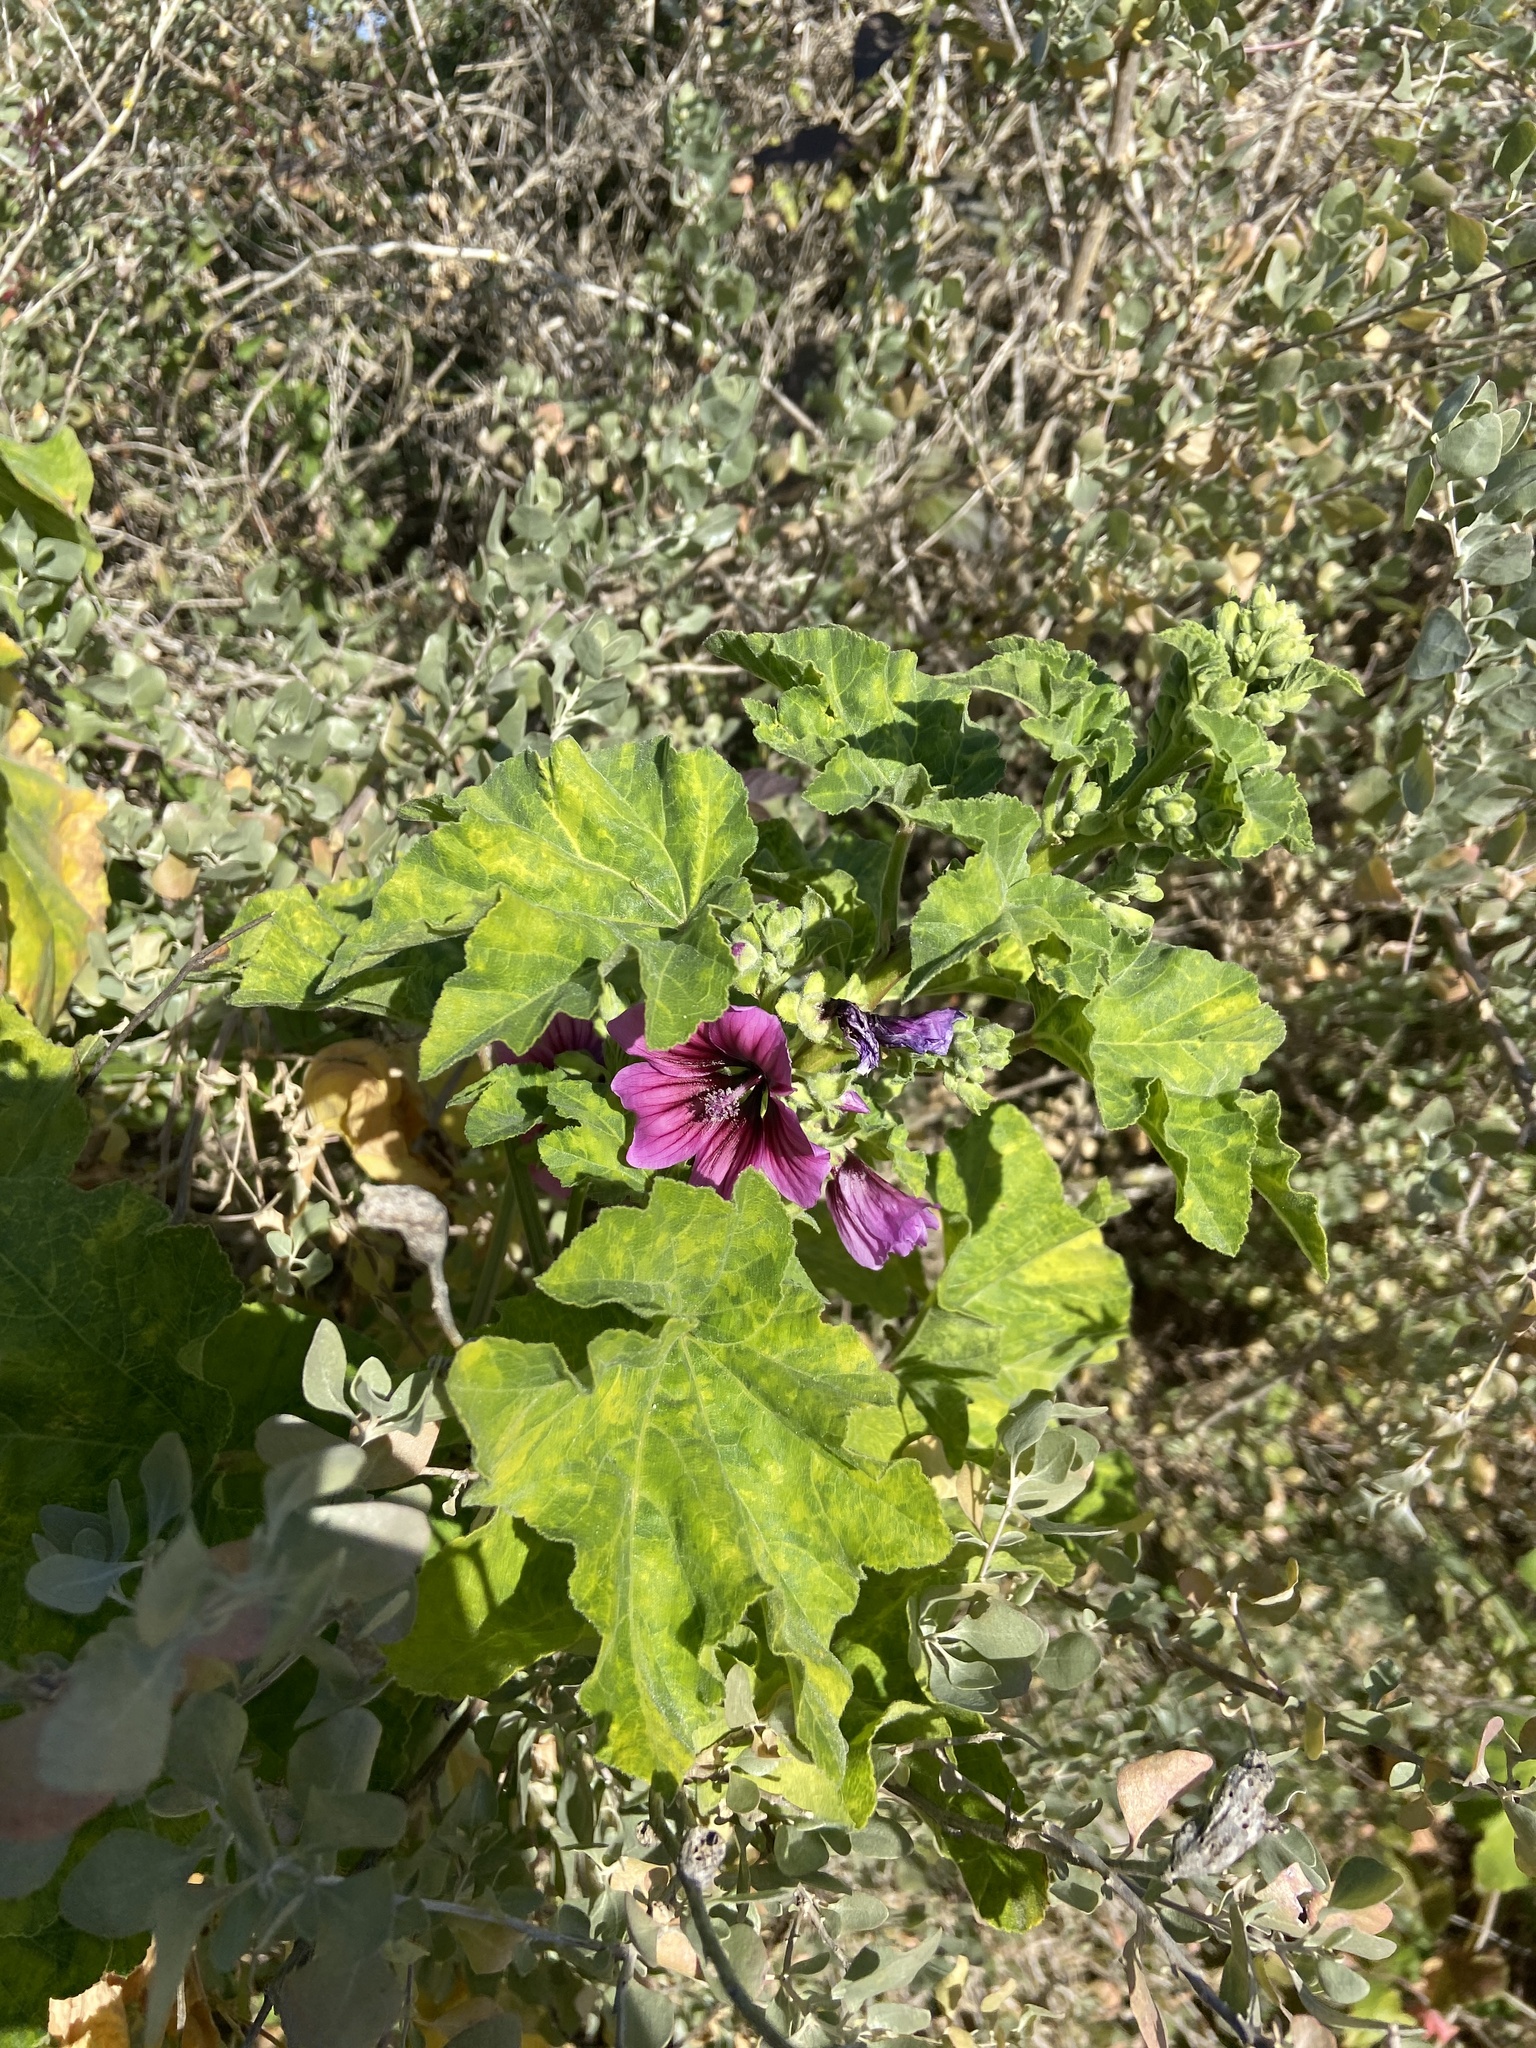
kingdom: Plantae
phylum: Tracheophyta
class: Magnoliopsida
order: Malvales
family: Malvaceae
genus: Malva
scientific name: Malva arborea
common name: Tree mallow
